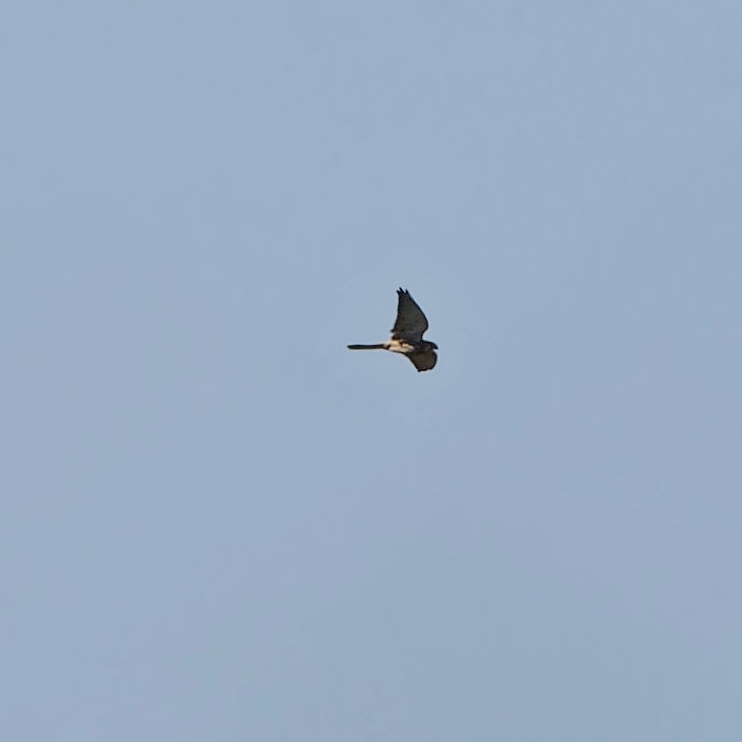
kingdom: Animalia
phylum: Chordata
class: Aves
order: Falconiformes
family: Falconidae
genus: Falco
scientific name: Falco tinnunculus
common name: Common kestrel
